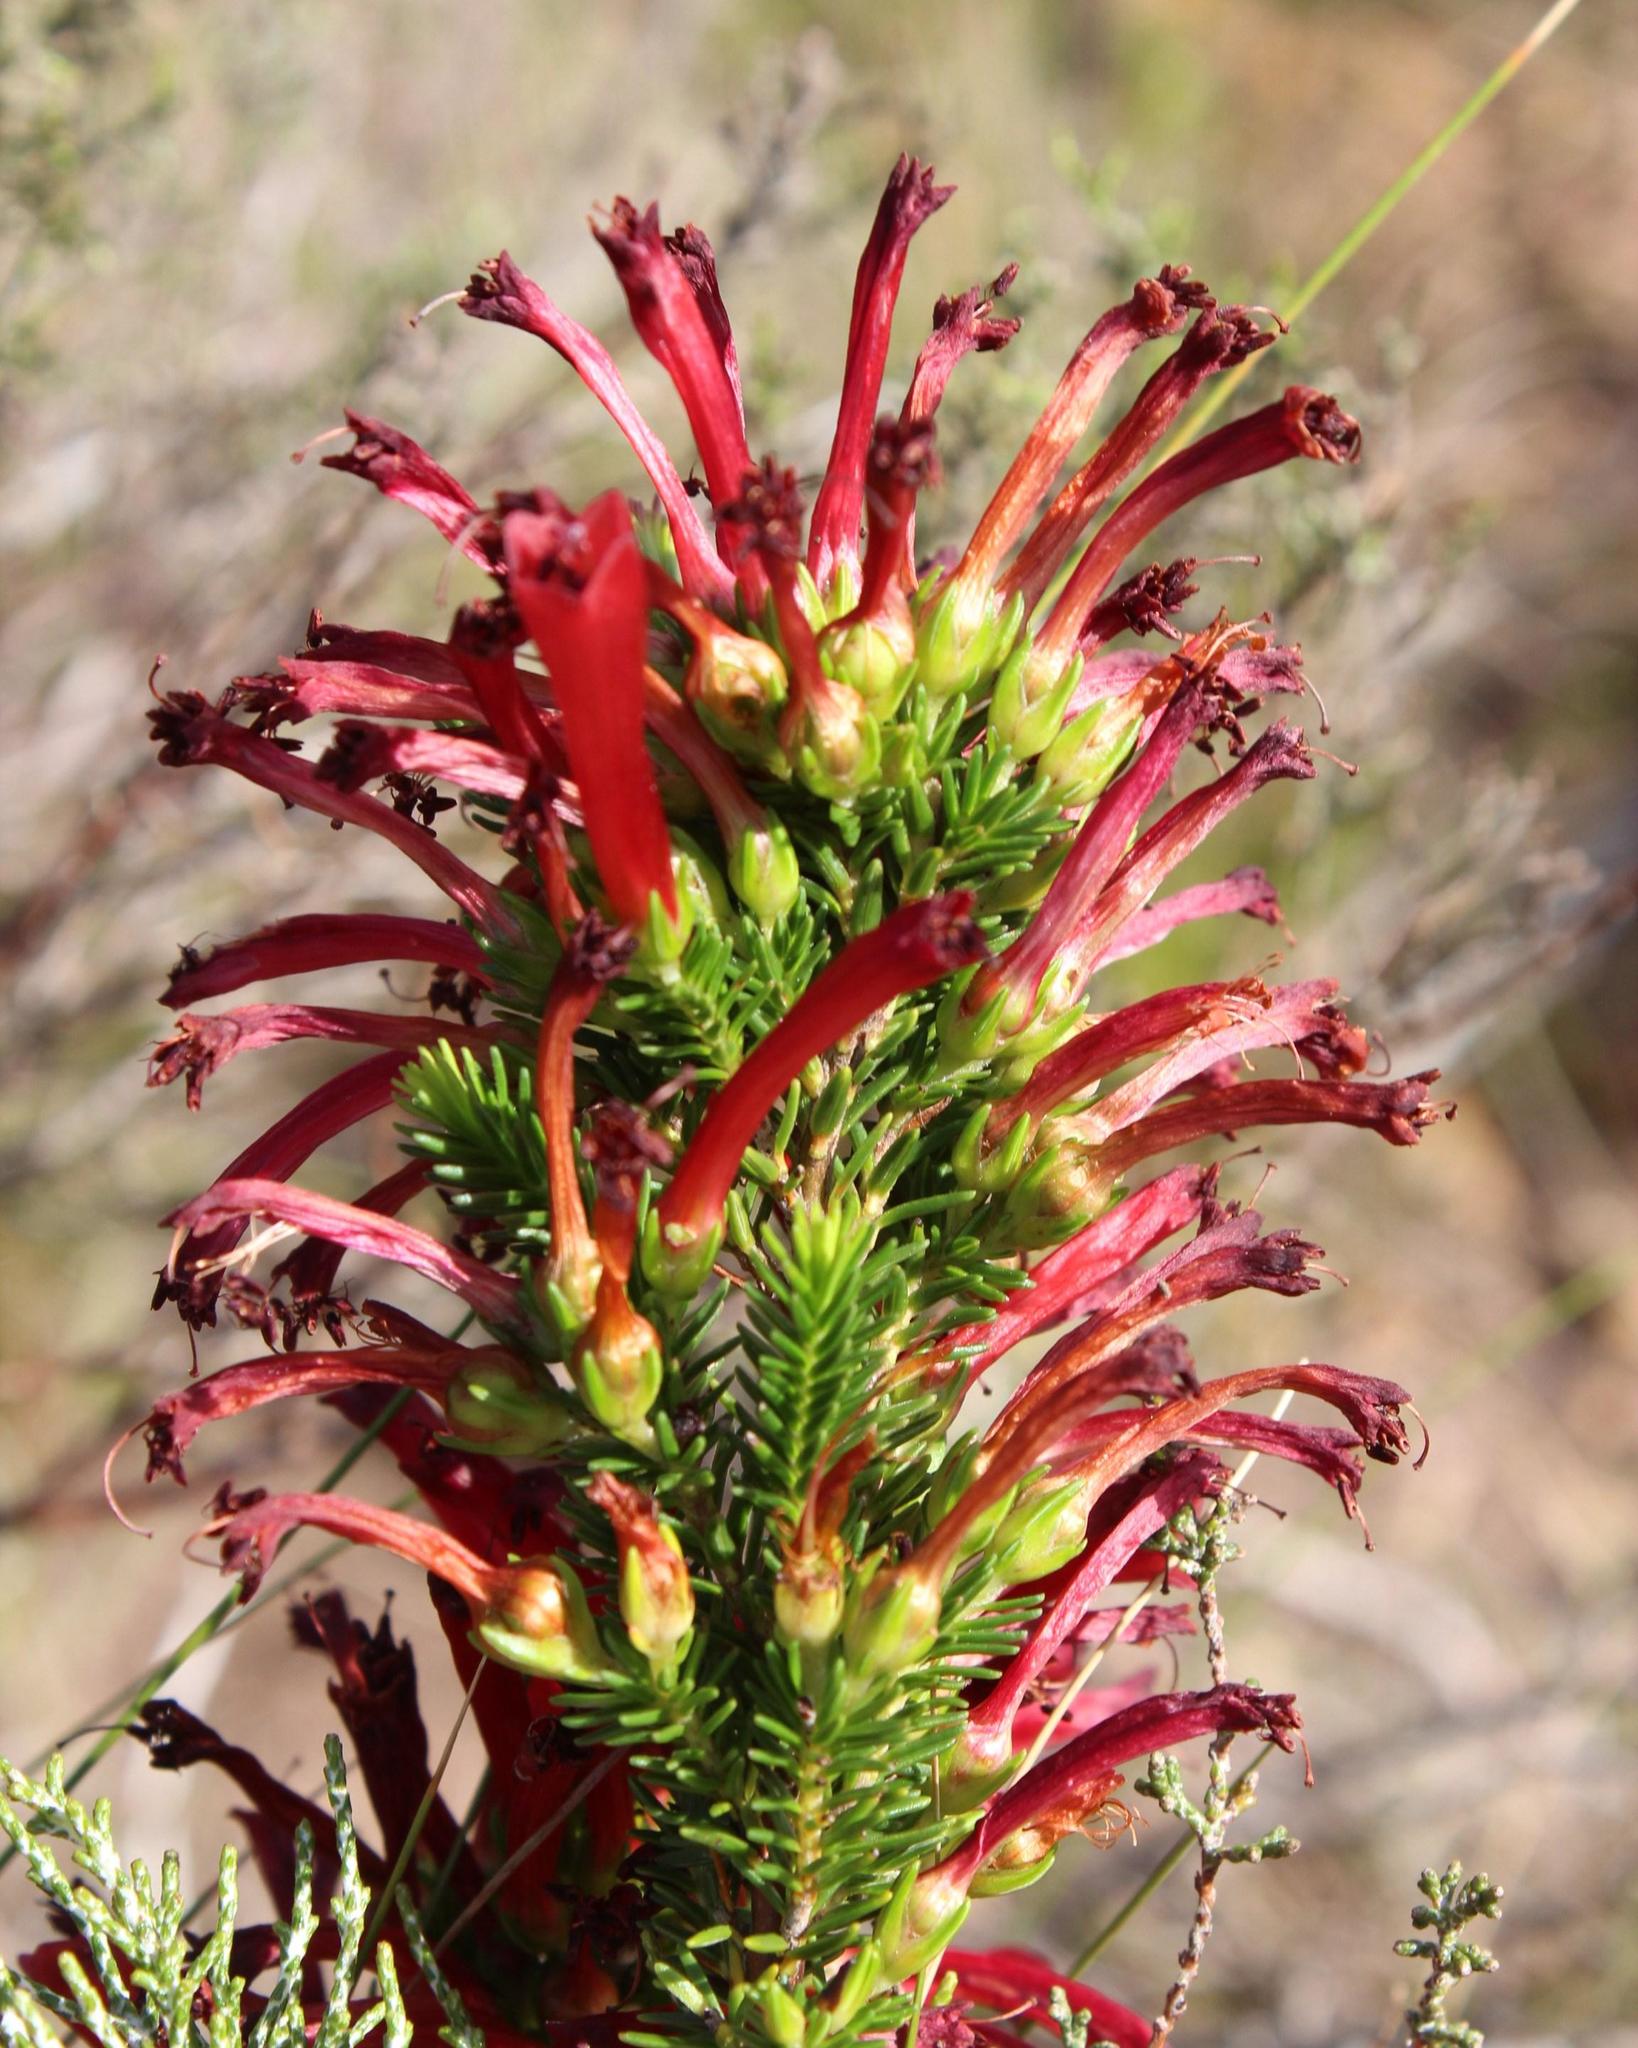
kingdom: Plantae
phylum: Tracheophyta
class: Magnoliopsida
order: Ericales
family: Ericaceae
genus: Erica
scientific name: Erica cruenta
